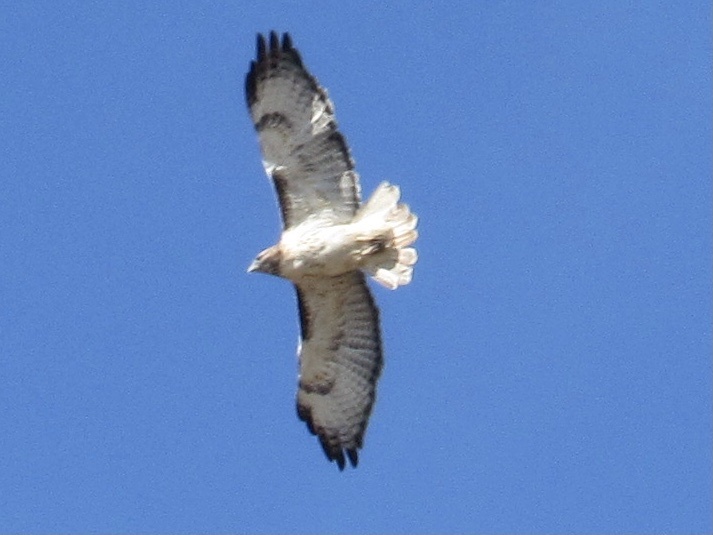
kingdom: Animalia
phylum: Chordata
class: Aves
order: Accipitriformes
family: Accipitridae
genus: Buteo
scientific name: Buteo jamaicensis
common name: Red-tailed hawk
